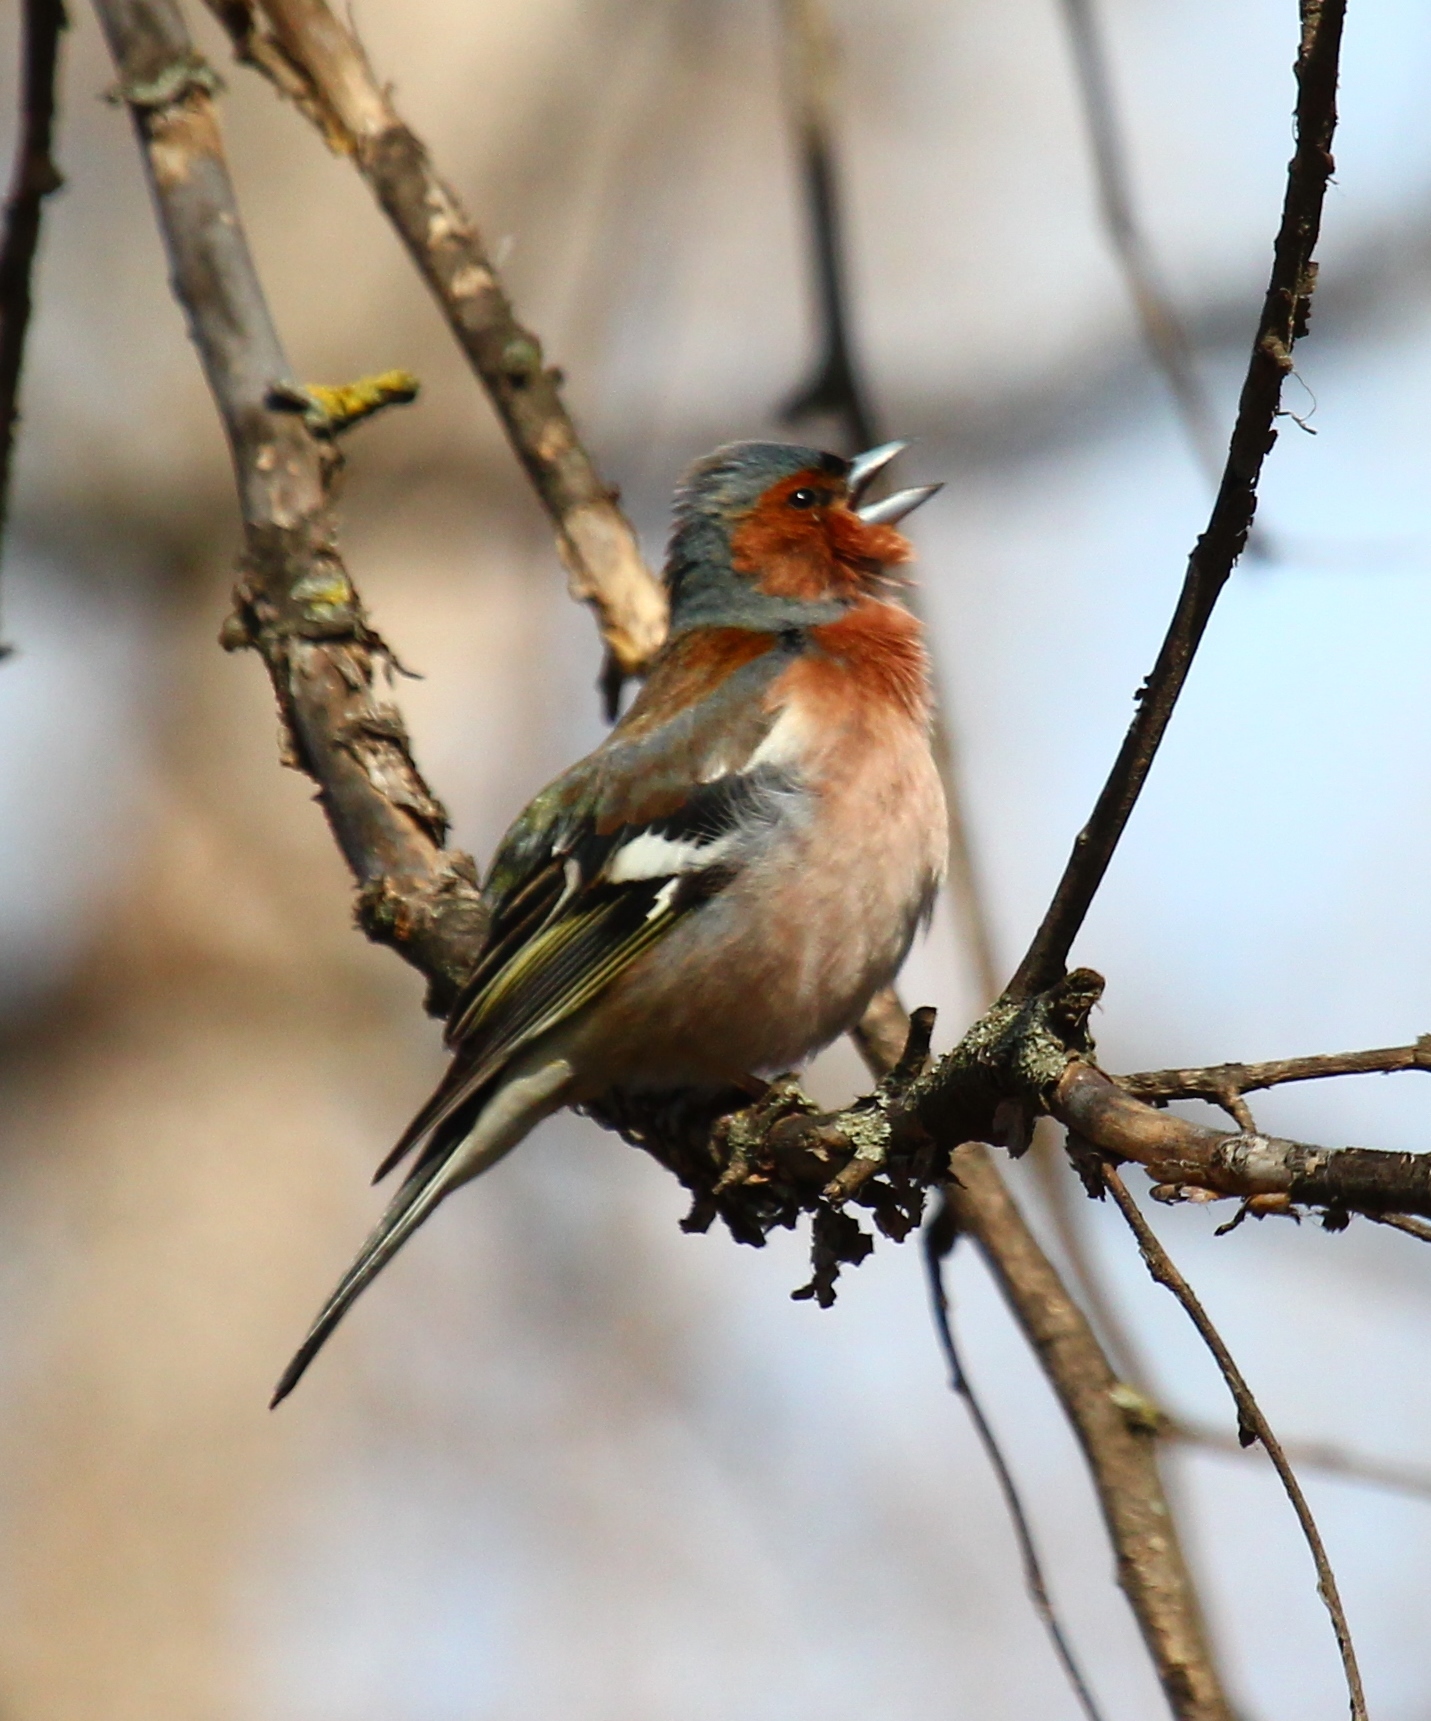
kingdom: Animalia
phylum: Chordata
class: Aves
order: Passeriformes
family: Fringillidae
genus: Fringilla
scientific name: Fringilla coelebs
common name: Common chaffinch
